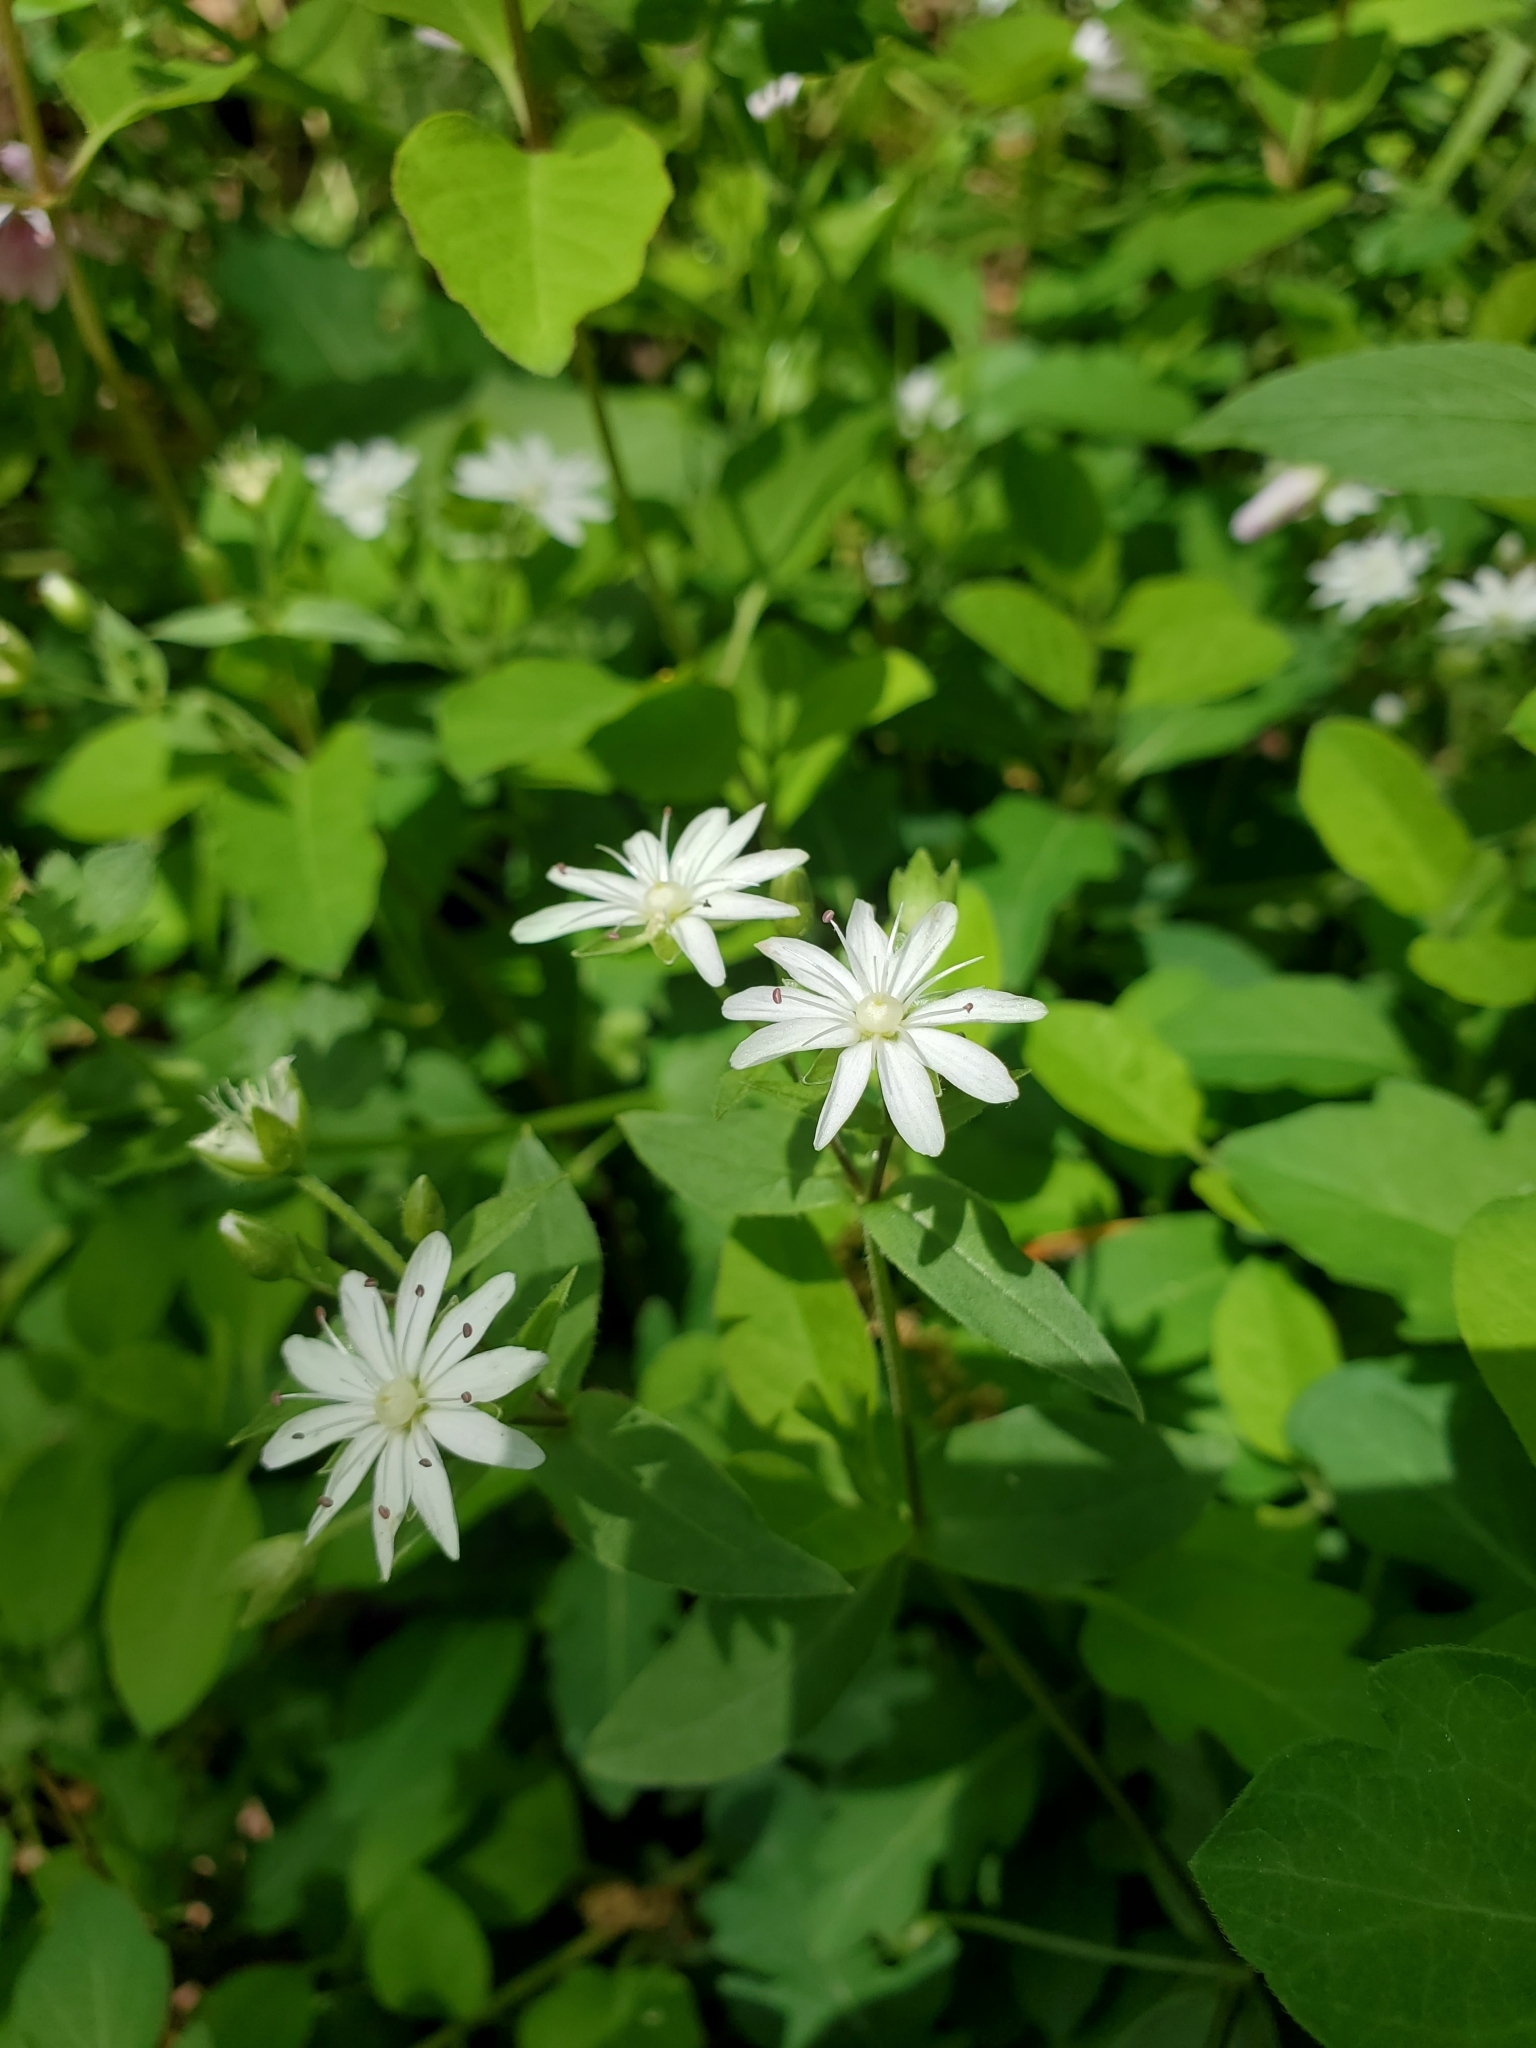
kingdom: Plantae
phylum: Tracheophyta
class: Magnoliopsida
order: Caryophyllales
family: Caryophyllaceae
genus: Stellaria
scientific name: Stellaria pubera
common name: Star chickweed
